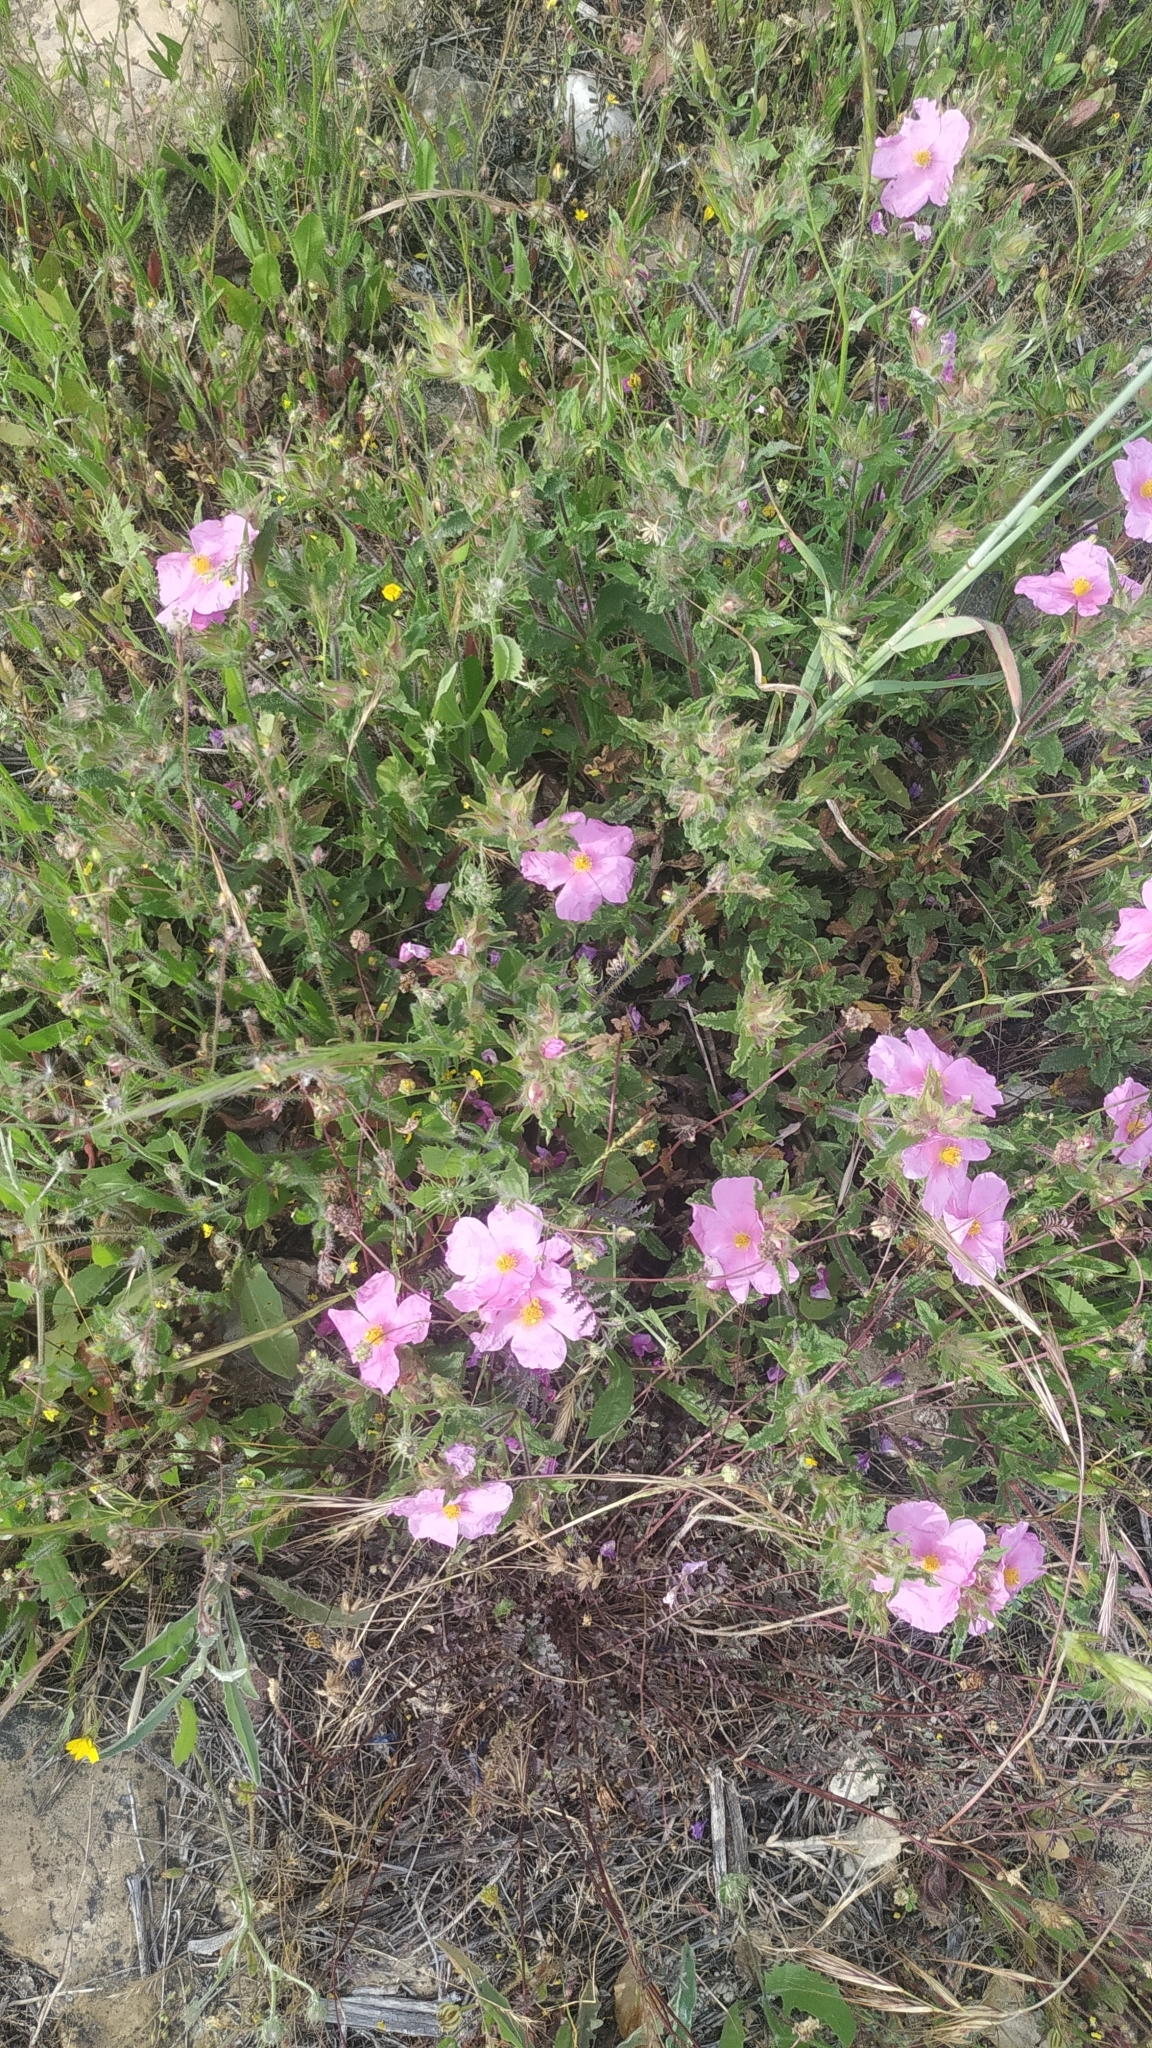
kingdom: Plantae
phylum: Tracheophyta
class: Magnoliopsida
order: Malvales
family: Cistaceae
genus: Cistus
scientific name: Cistus crispus
